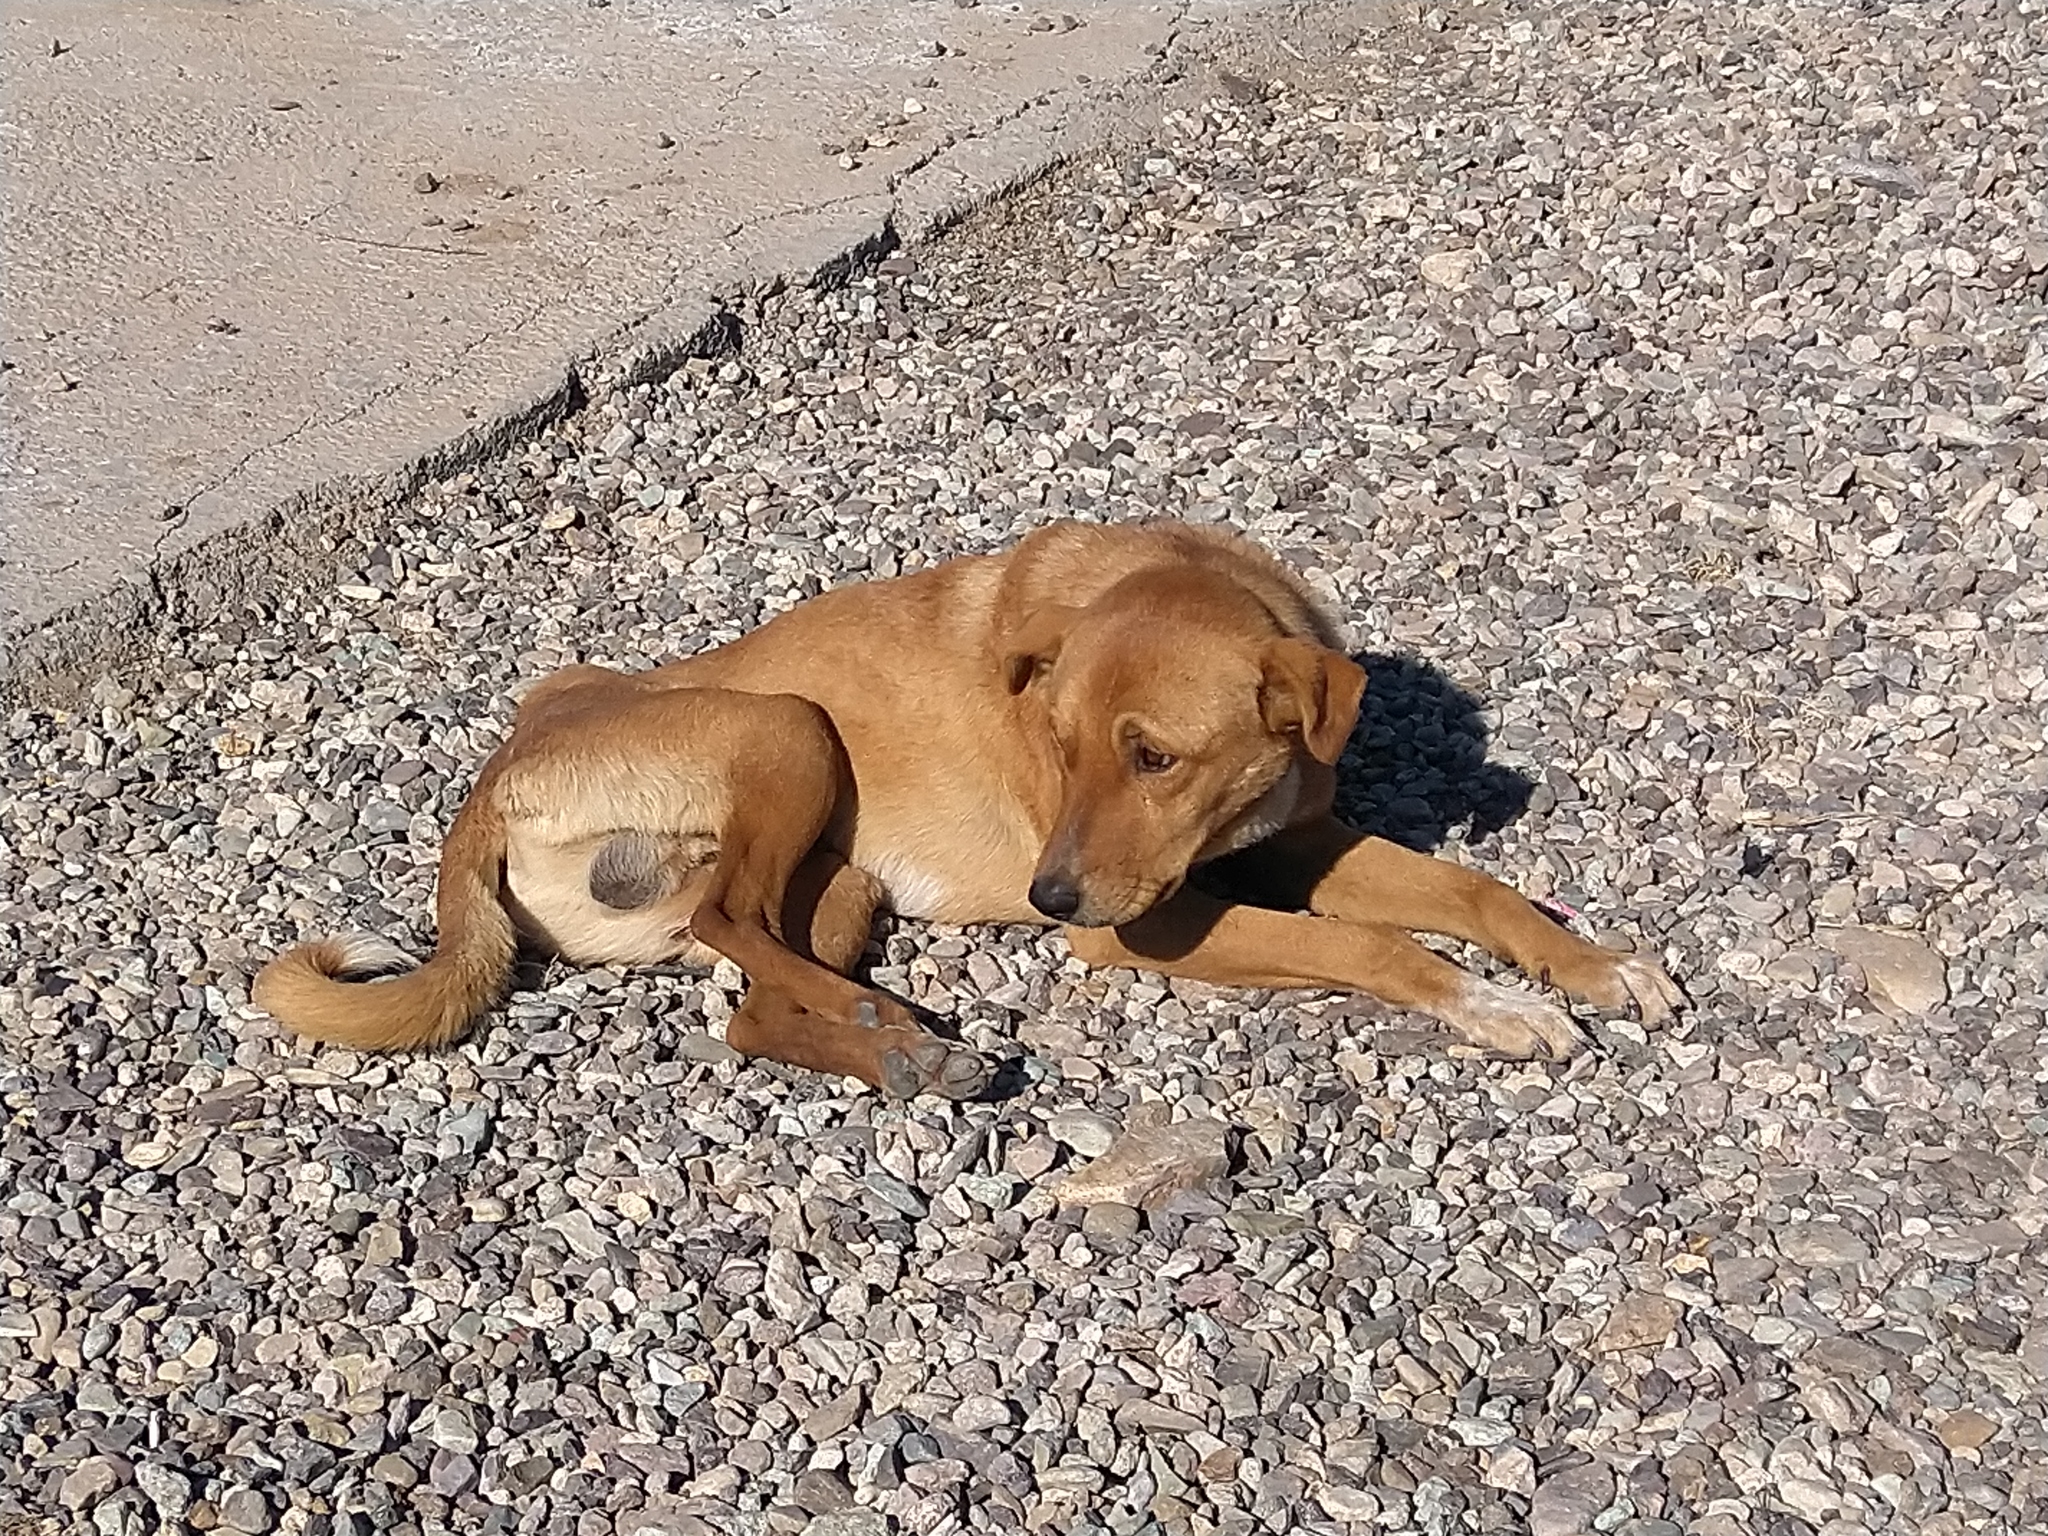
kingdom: Animalia
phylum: Chordata
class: Mammalia
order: Carnivora
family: Canidae
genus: Canis
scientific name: Canis lupus
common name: Gray wolf
